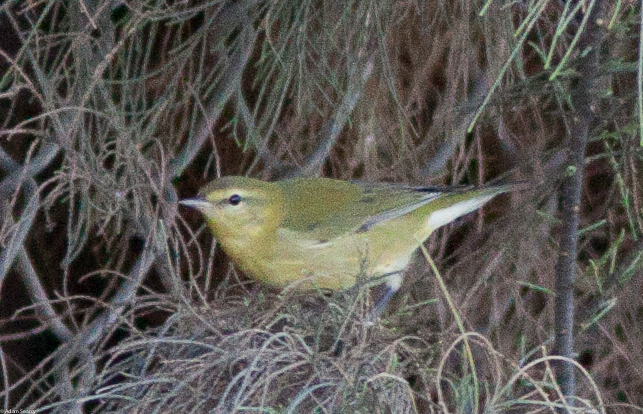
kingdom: Animalia
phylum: Chordata
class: Aves
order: Passeriformes
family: Parulidae
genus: Leiothlypis
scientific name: Leiothlypis peregrina
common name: Tennessee warbler
